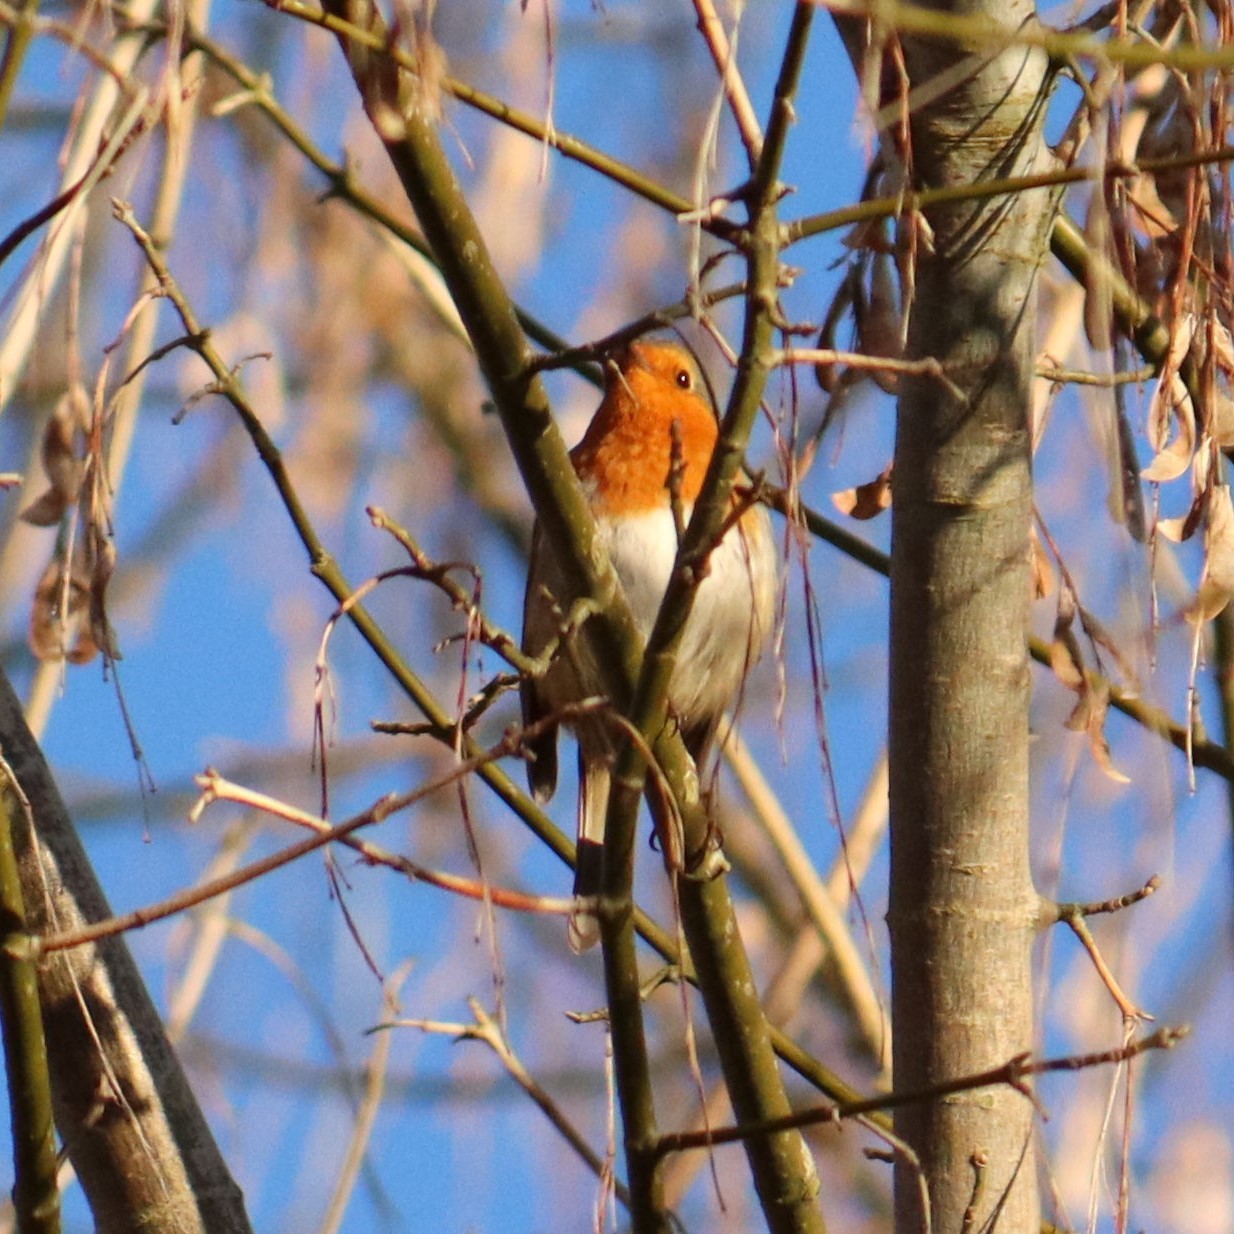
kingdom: Animalia
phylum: Chordata
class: Aves
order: Passeriformes
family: Muscicapidae
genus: Erithacus
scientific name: Erithacus rubecula
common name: European robin
